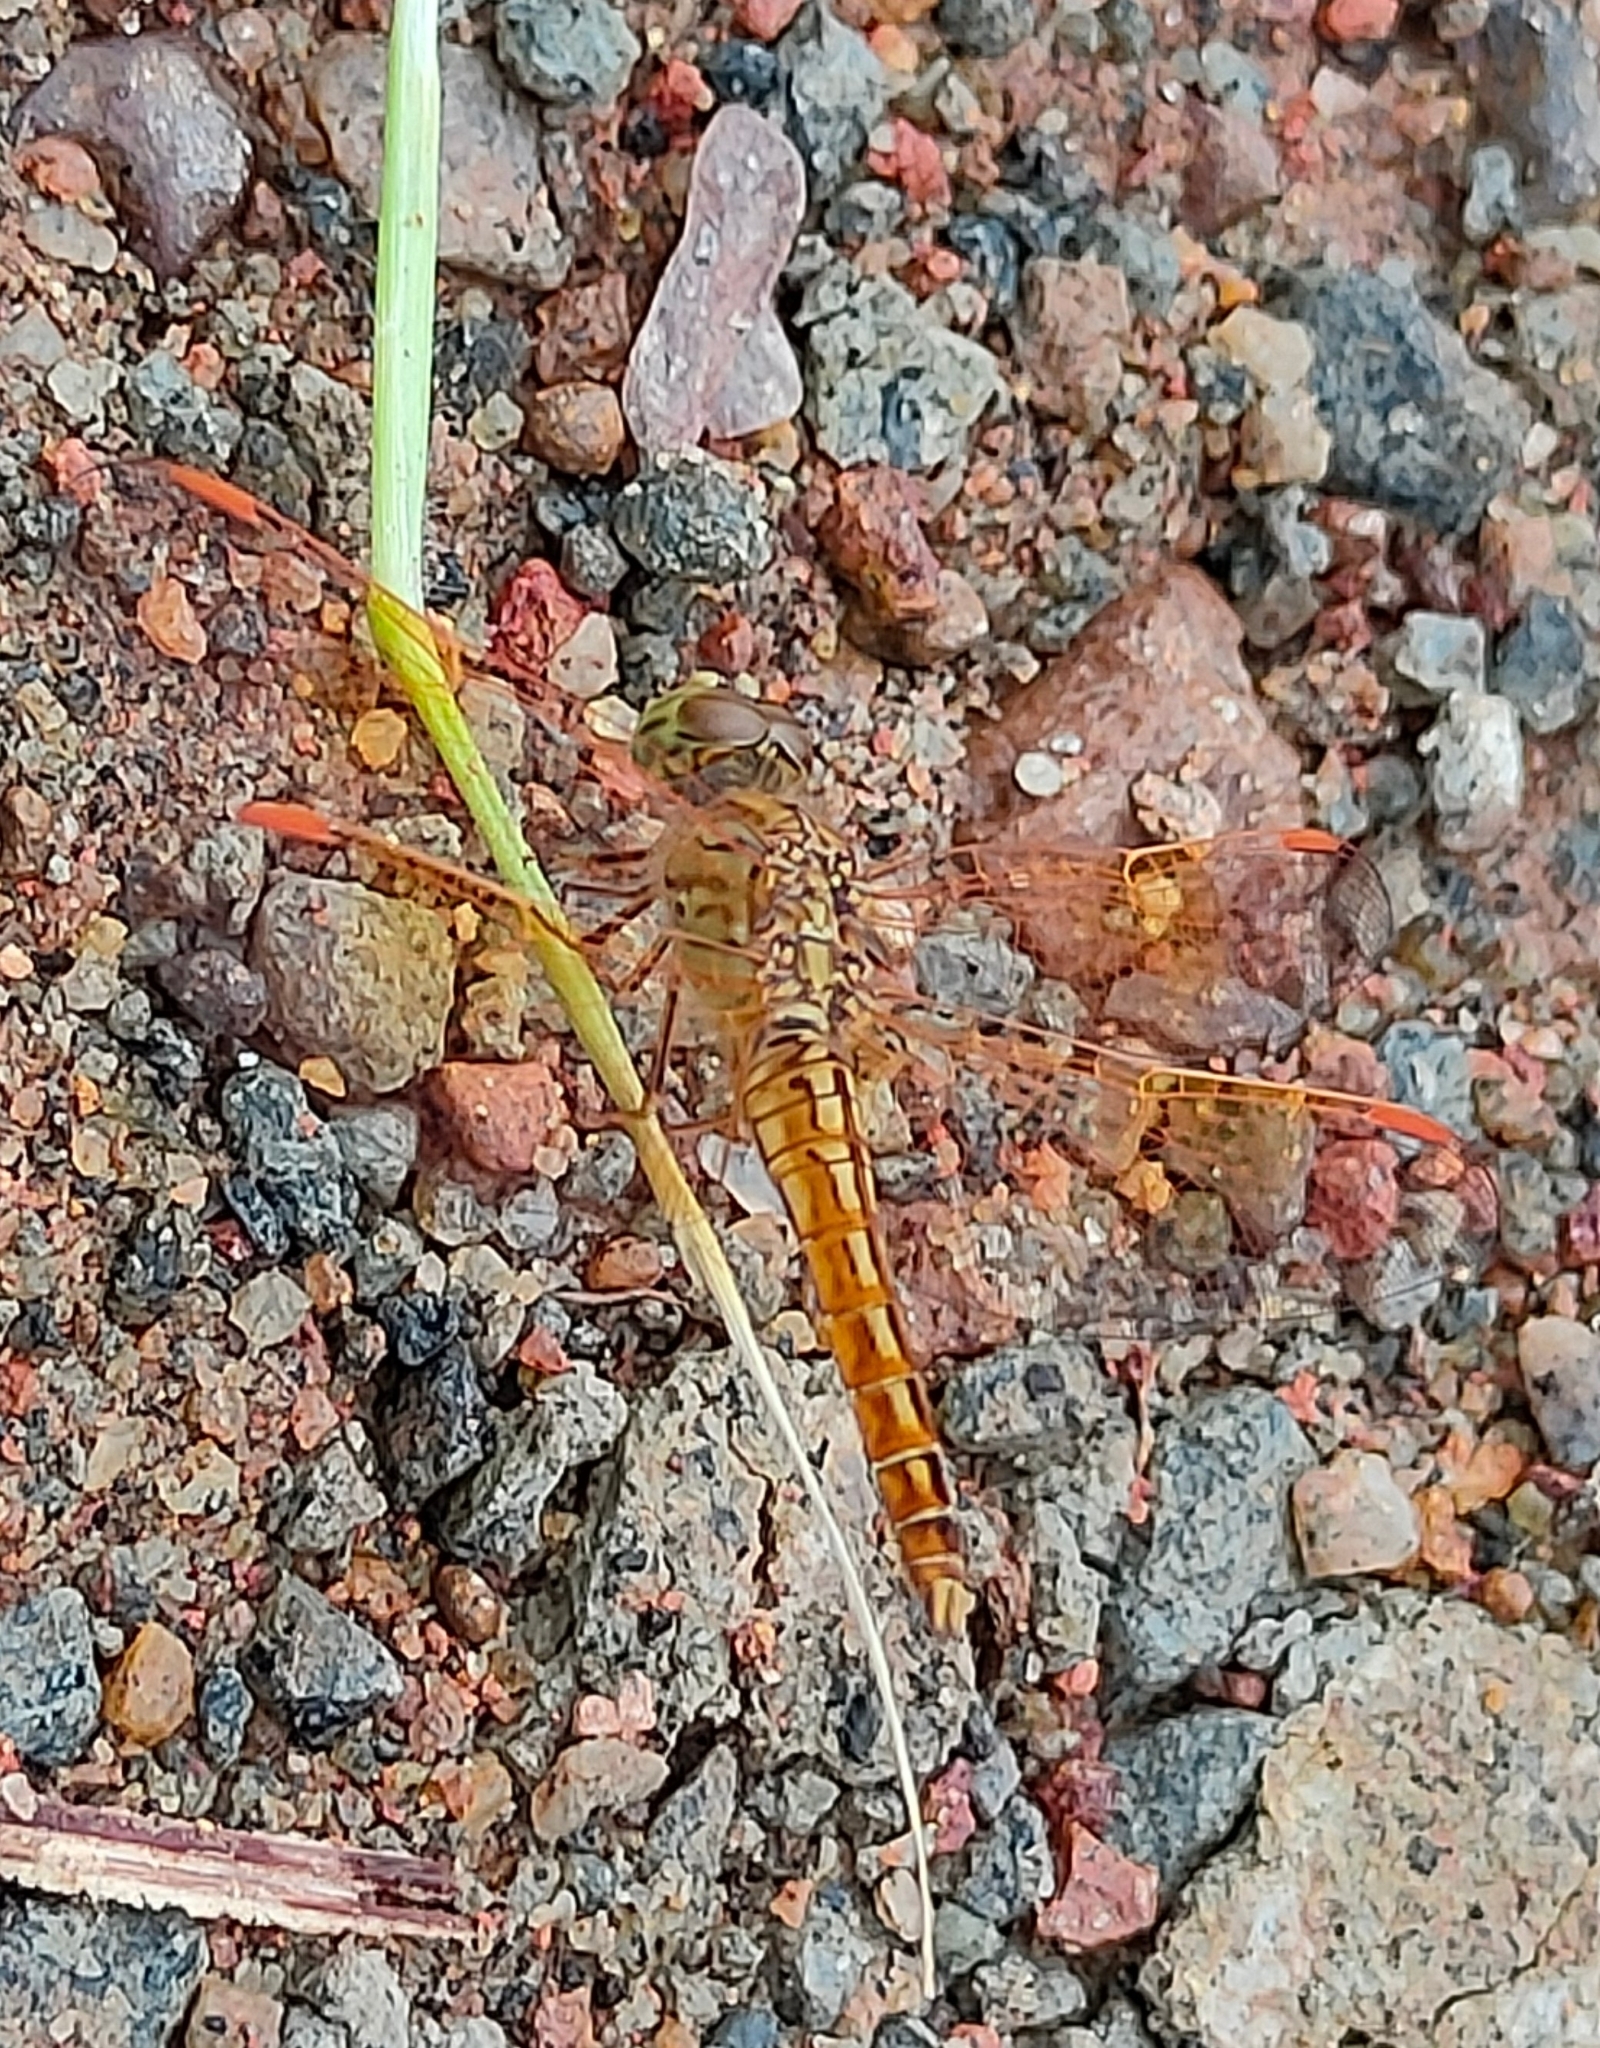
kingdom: Animalia
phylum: Arthropoda
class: Insecta
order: Odonata
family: Libellulidae
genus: Brachythemis
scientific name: Brachythemis contaminata
